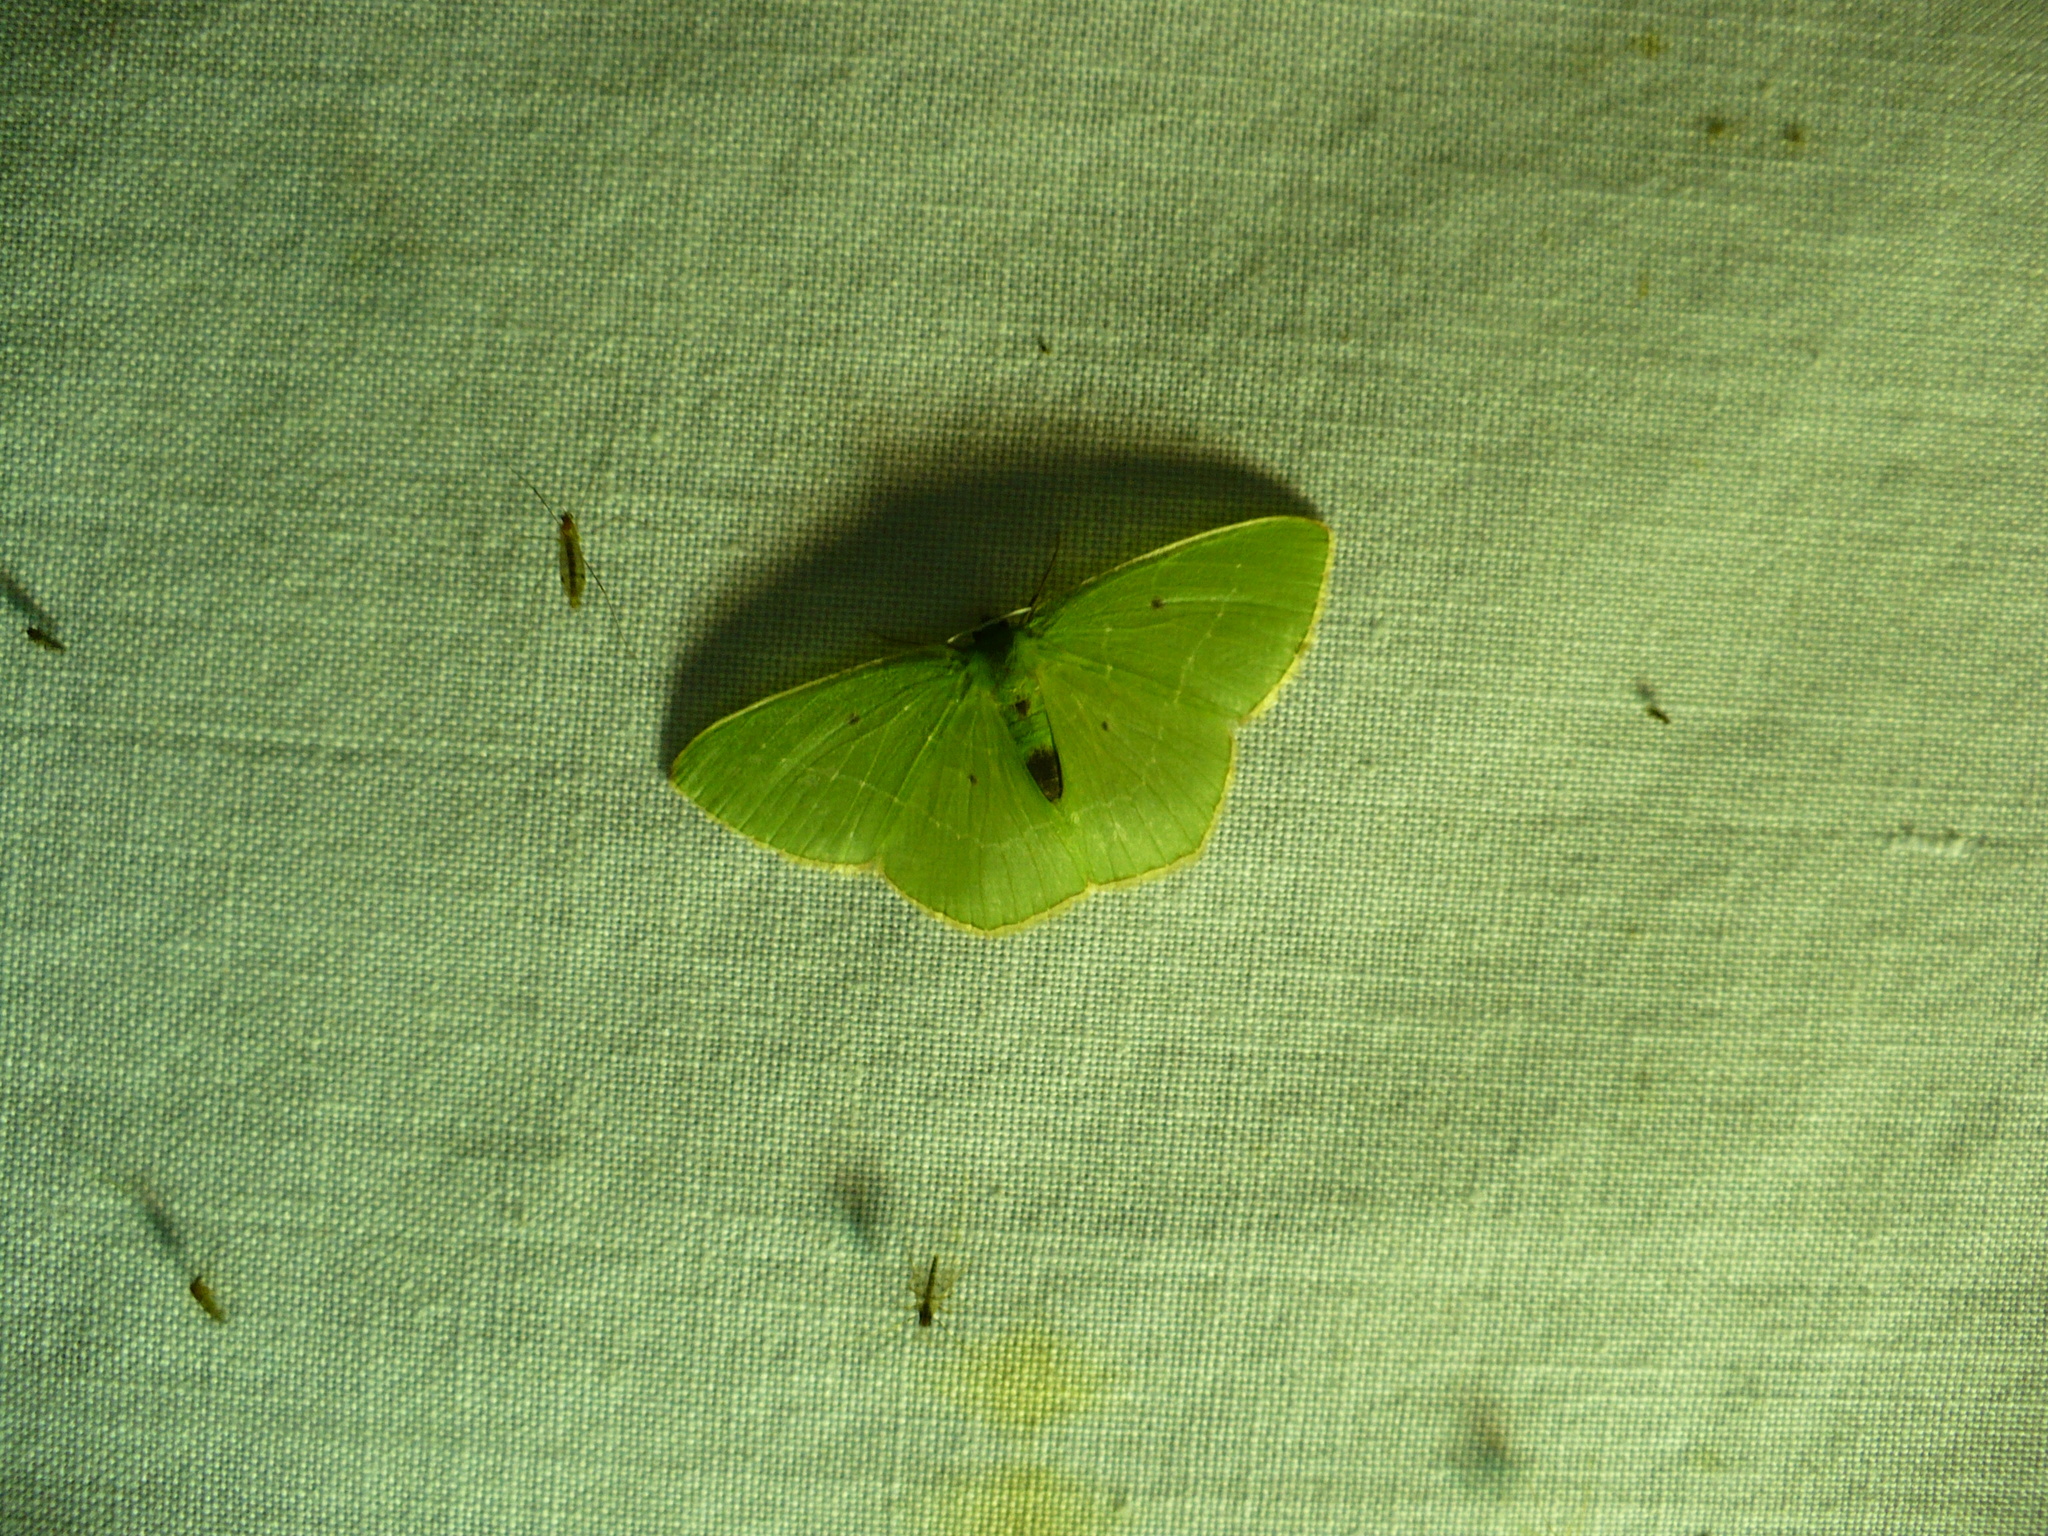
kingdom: Animalia
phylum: Arthropoda
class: Insecta
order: Lepidoptera
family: Geometridae
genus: Nemoria
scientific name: Nemoria karlae
